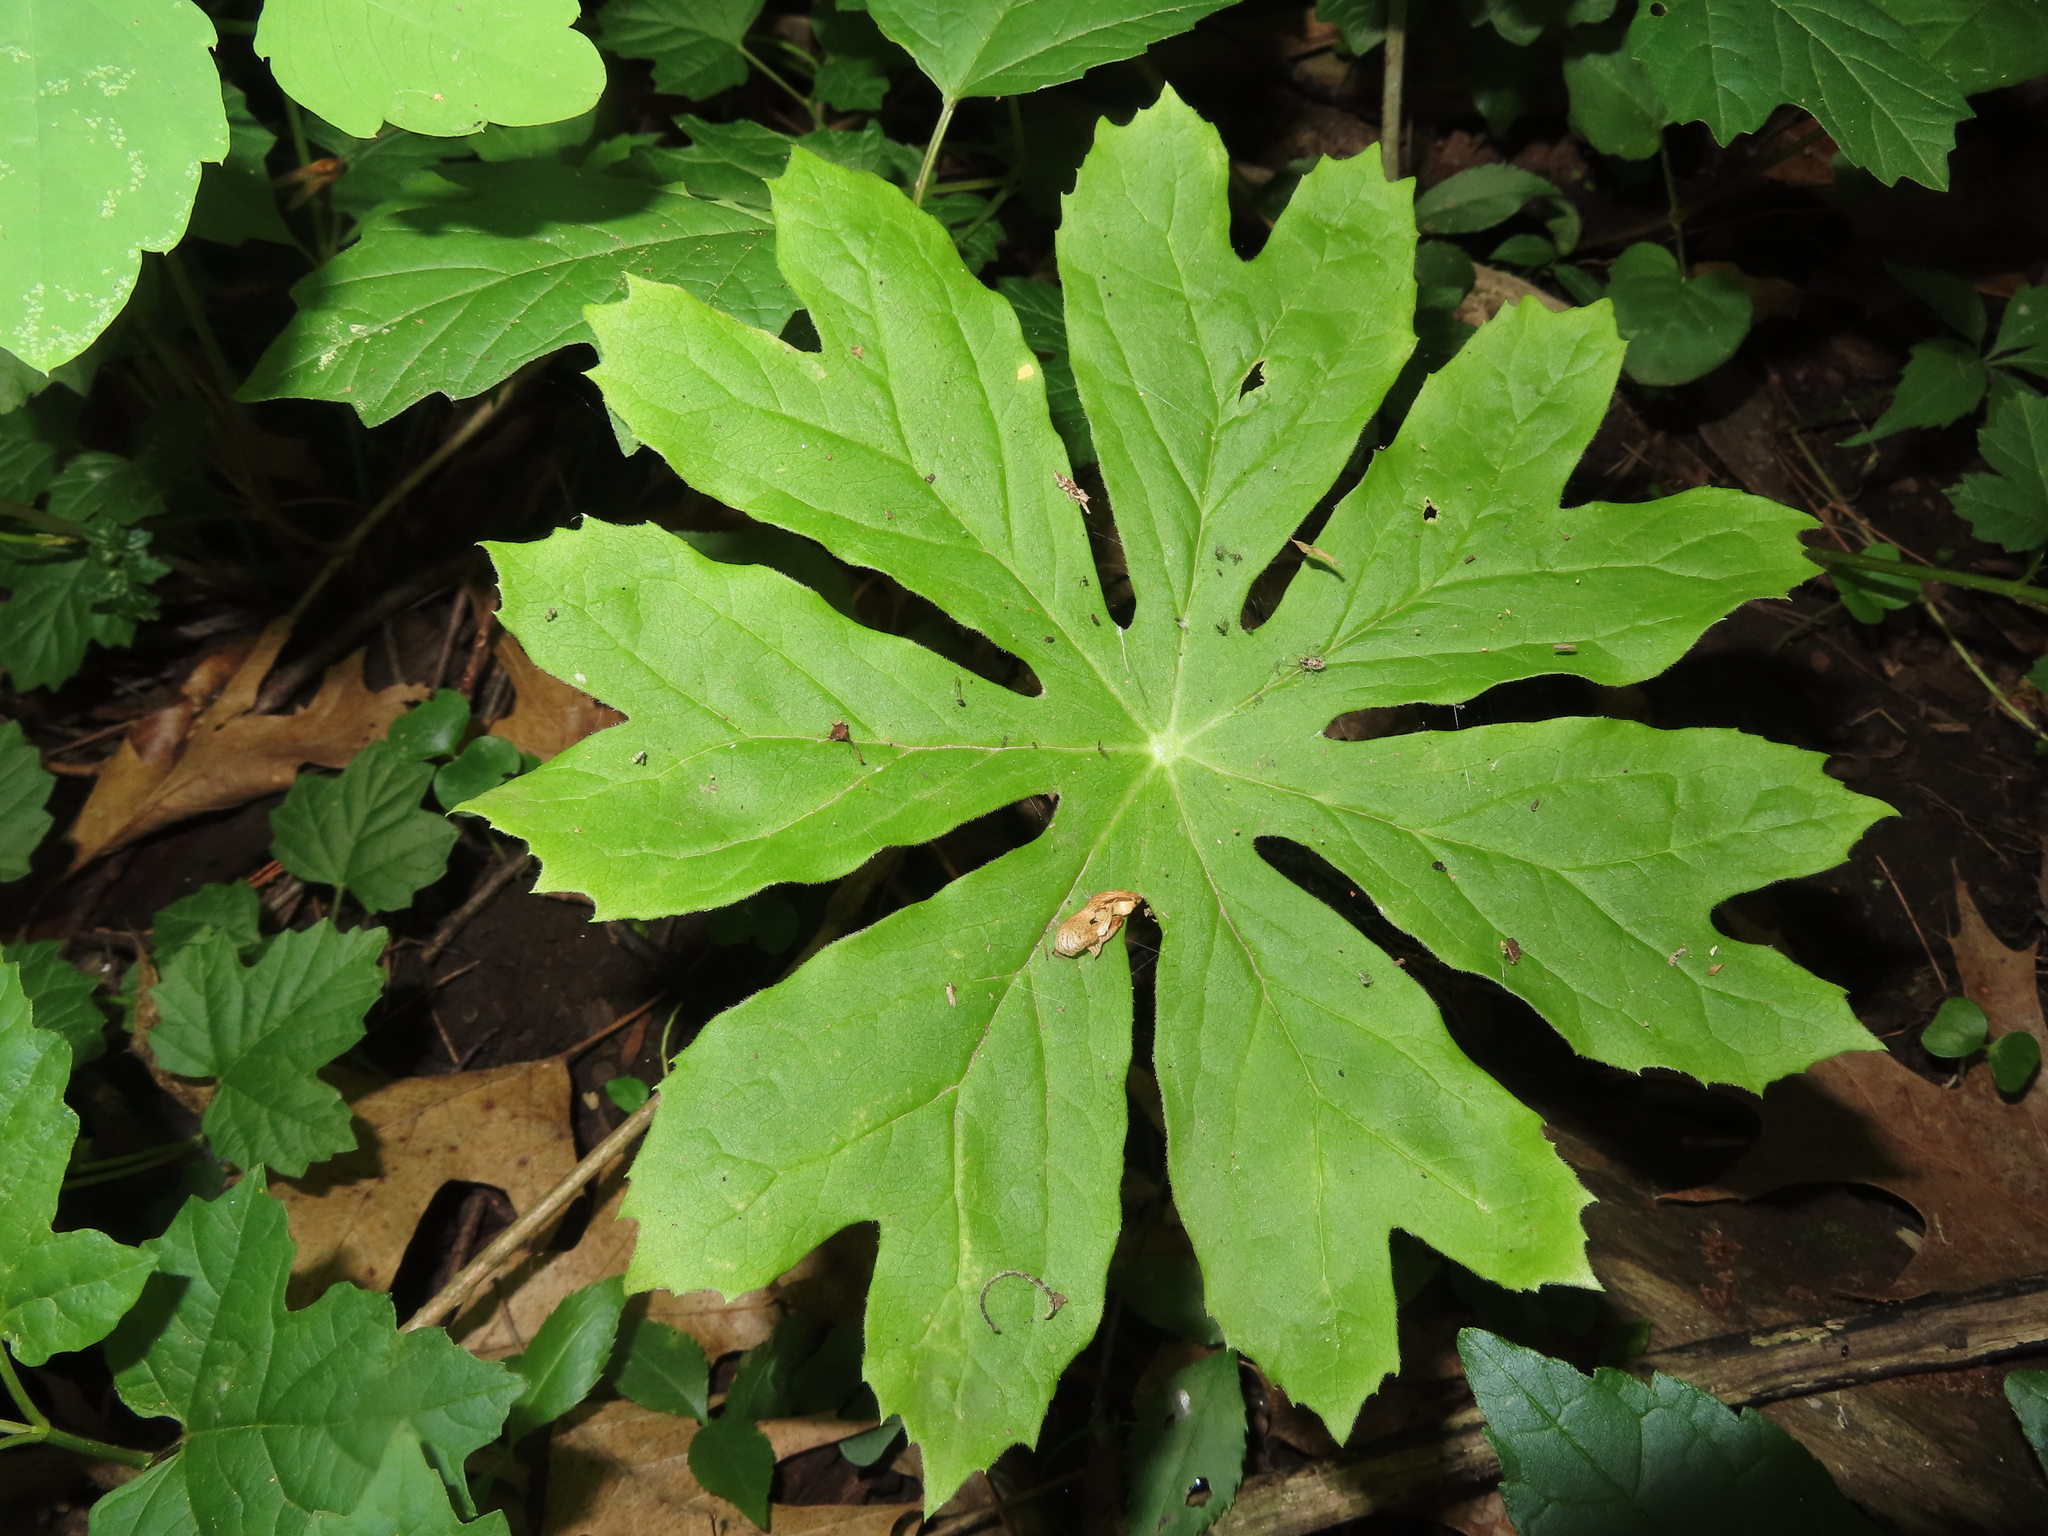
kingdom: Plantae
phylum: Tracheophyta
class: Magnoliopsida
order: Ranunculales
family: Berberidaceae
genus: Podophyllum
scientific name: Podophyllum peltatum
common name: Wild mandrake
